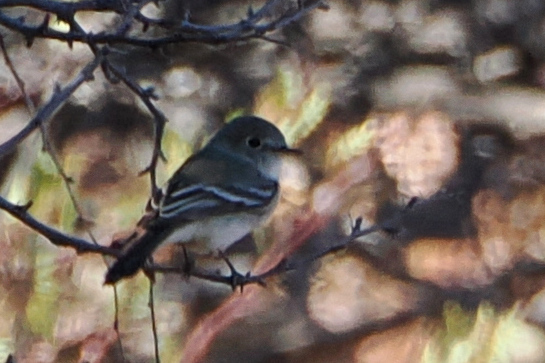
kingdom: Animalia
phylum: Chordata
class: Aves
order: Passeriformes
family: Tyrannidae
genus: Empidonax
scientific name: Empidonax wrightii
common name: Gray flycatcher
